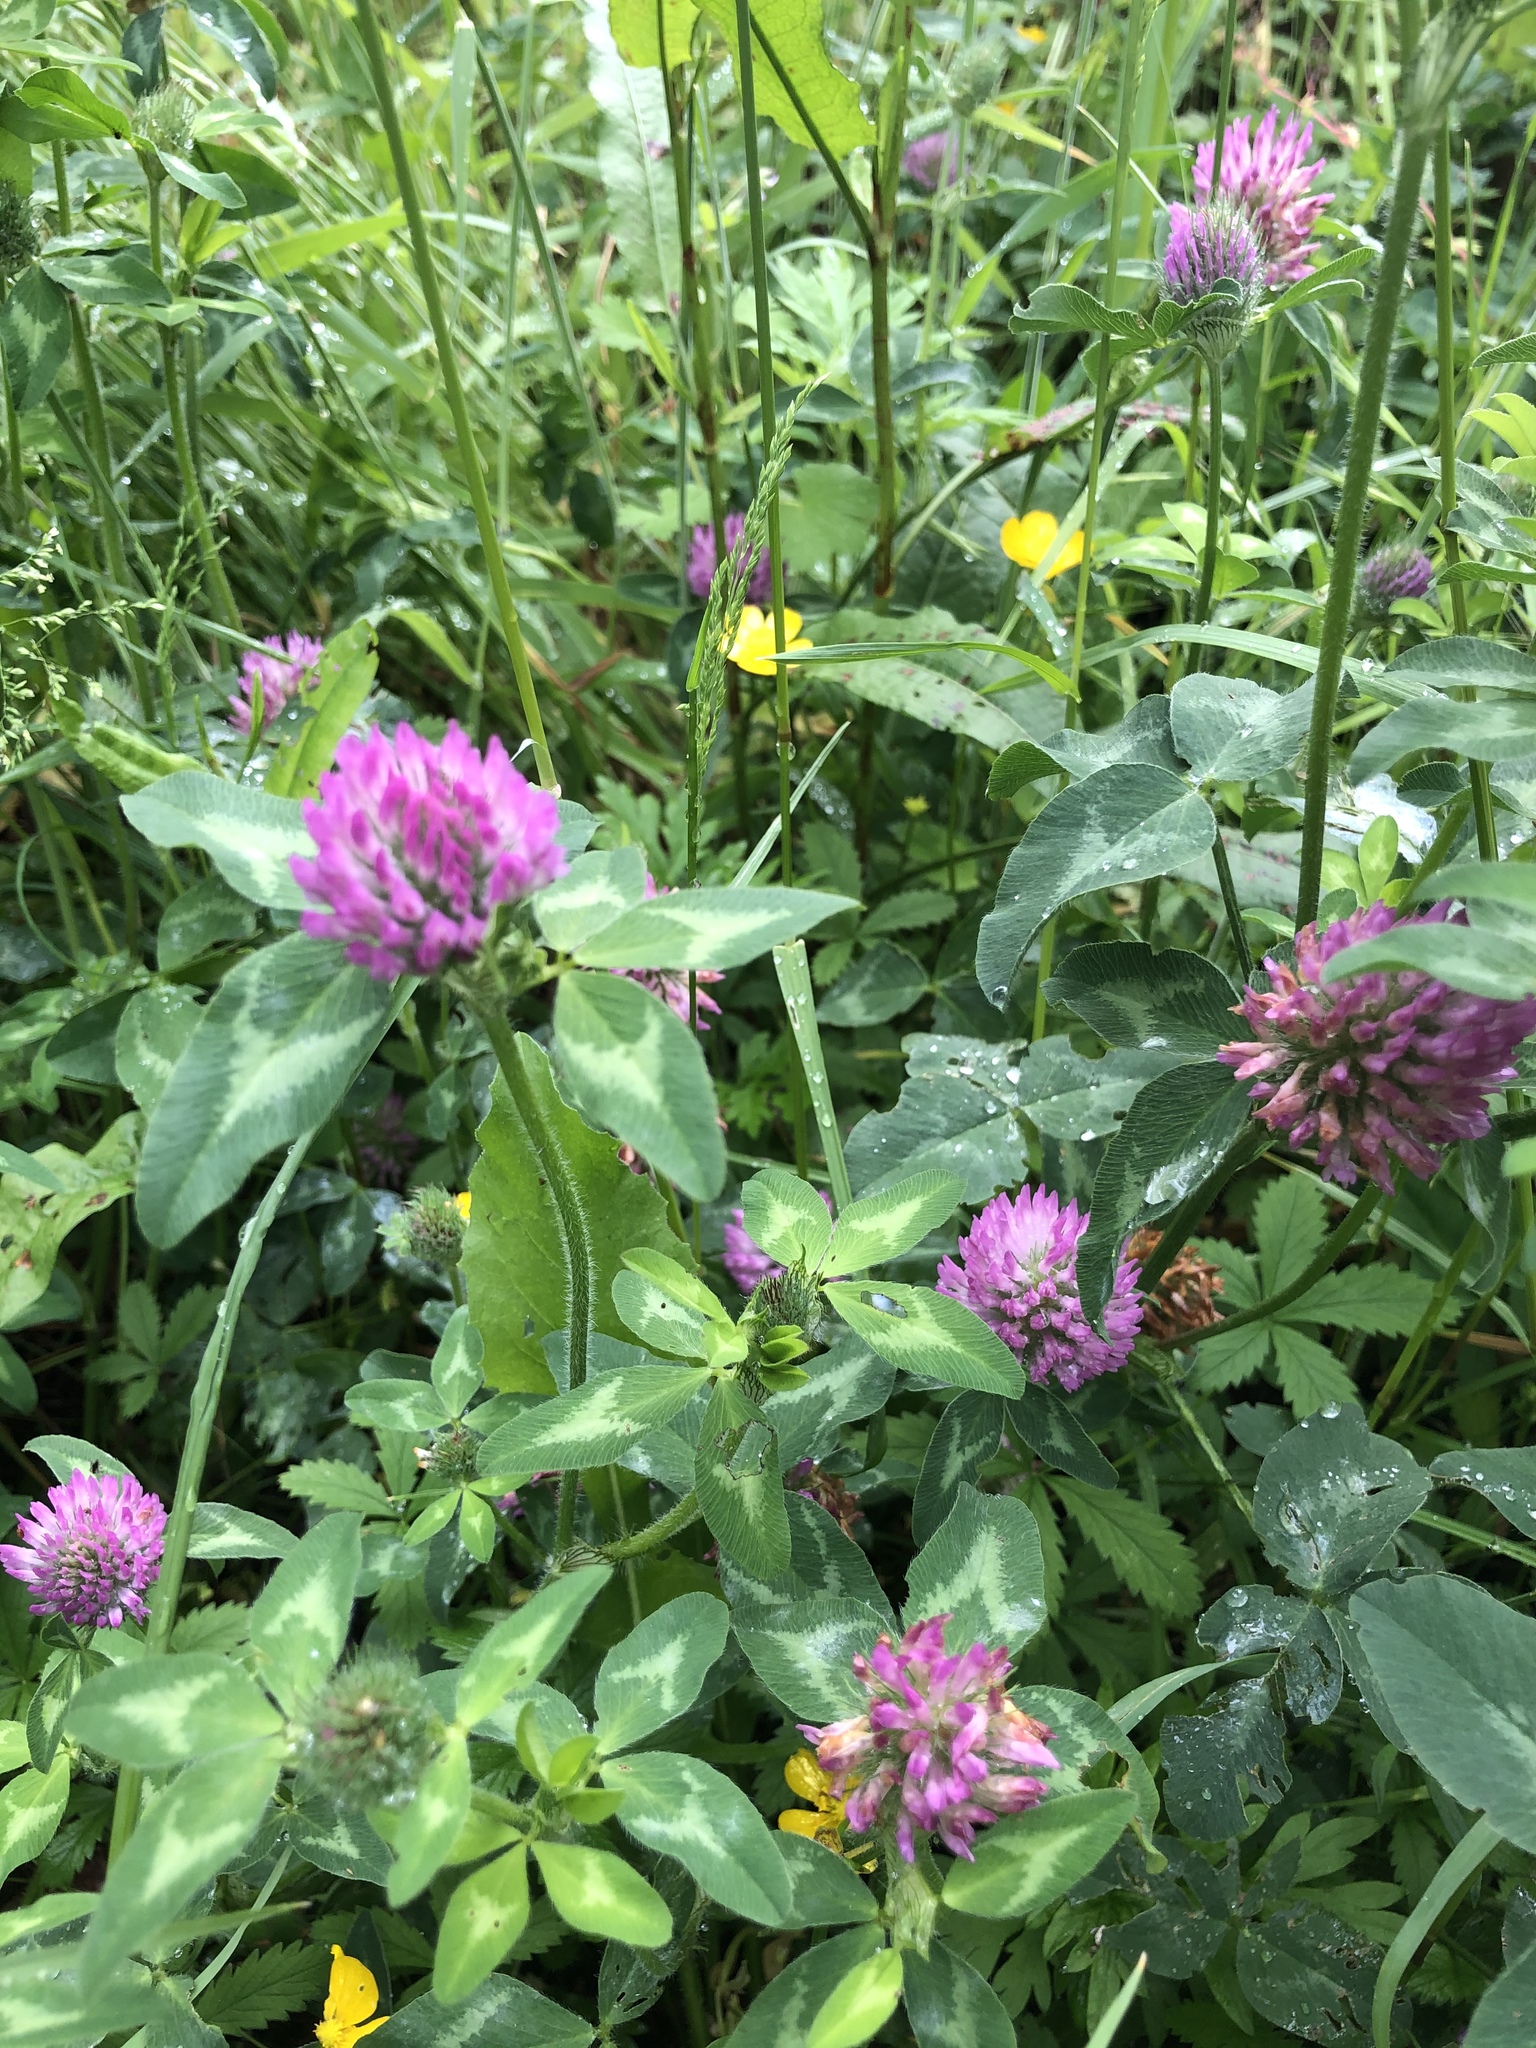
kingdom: Plantae
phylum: Tracheophyta
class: Magnoliopsida
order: Fabales
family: Fabaceae
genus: Trifolium
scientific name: Trifolium pratense
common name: Red clover
